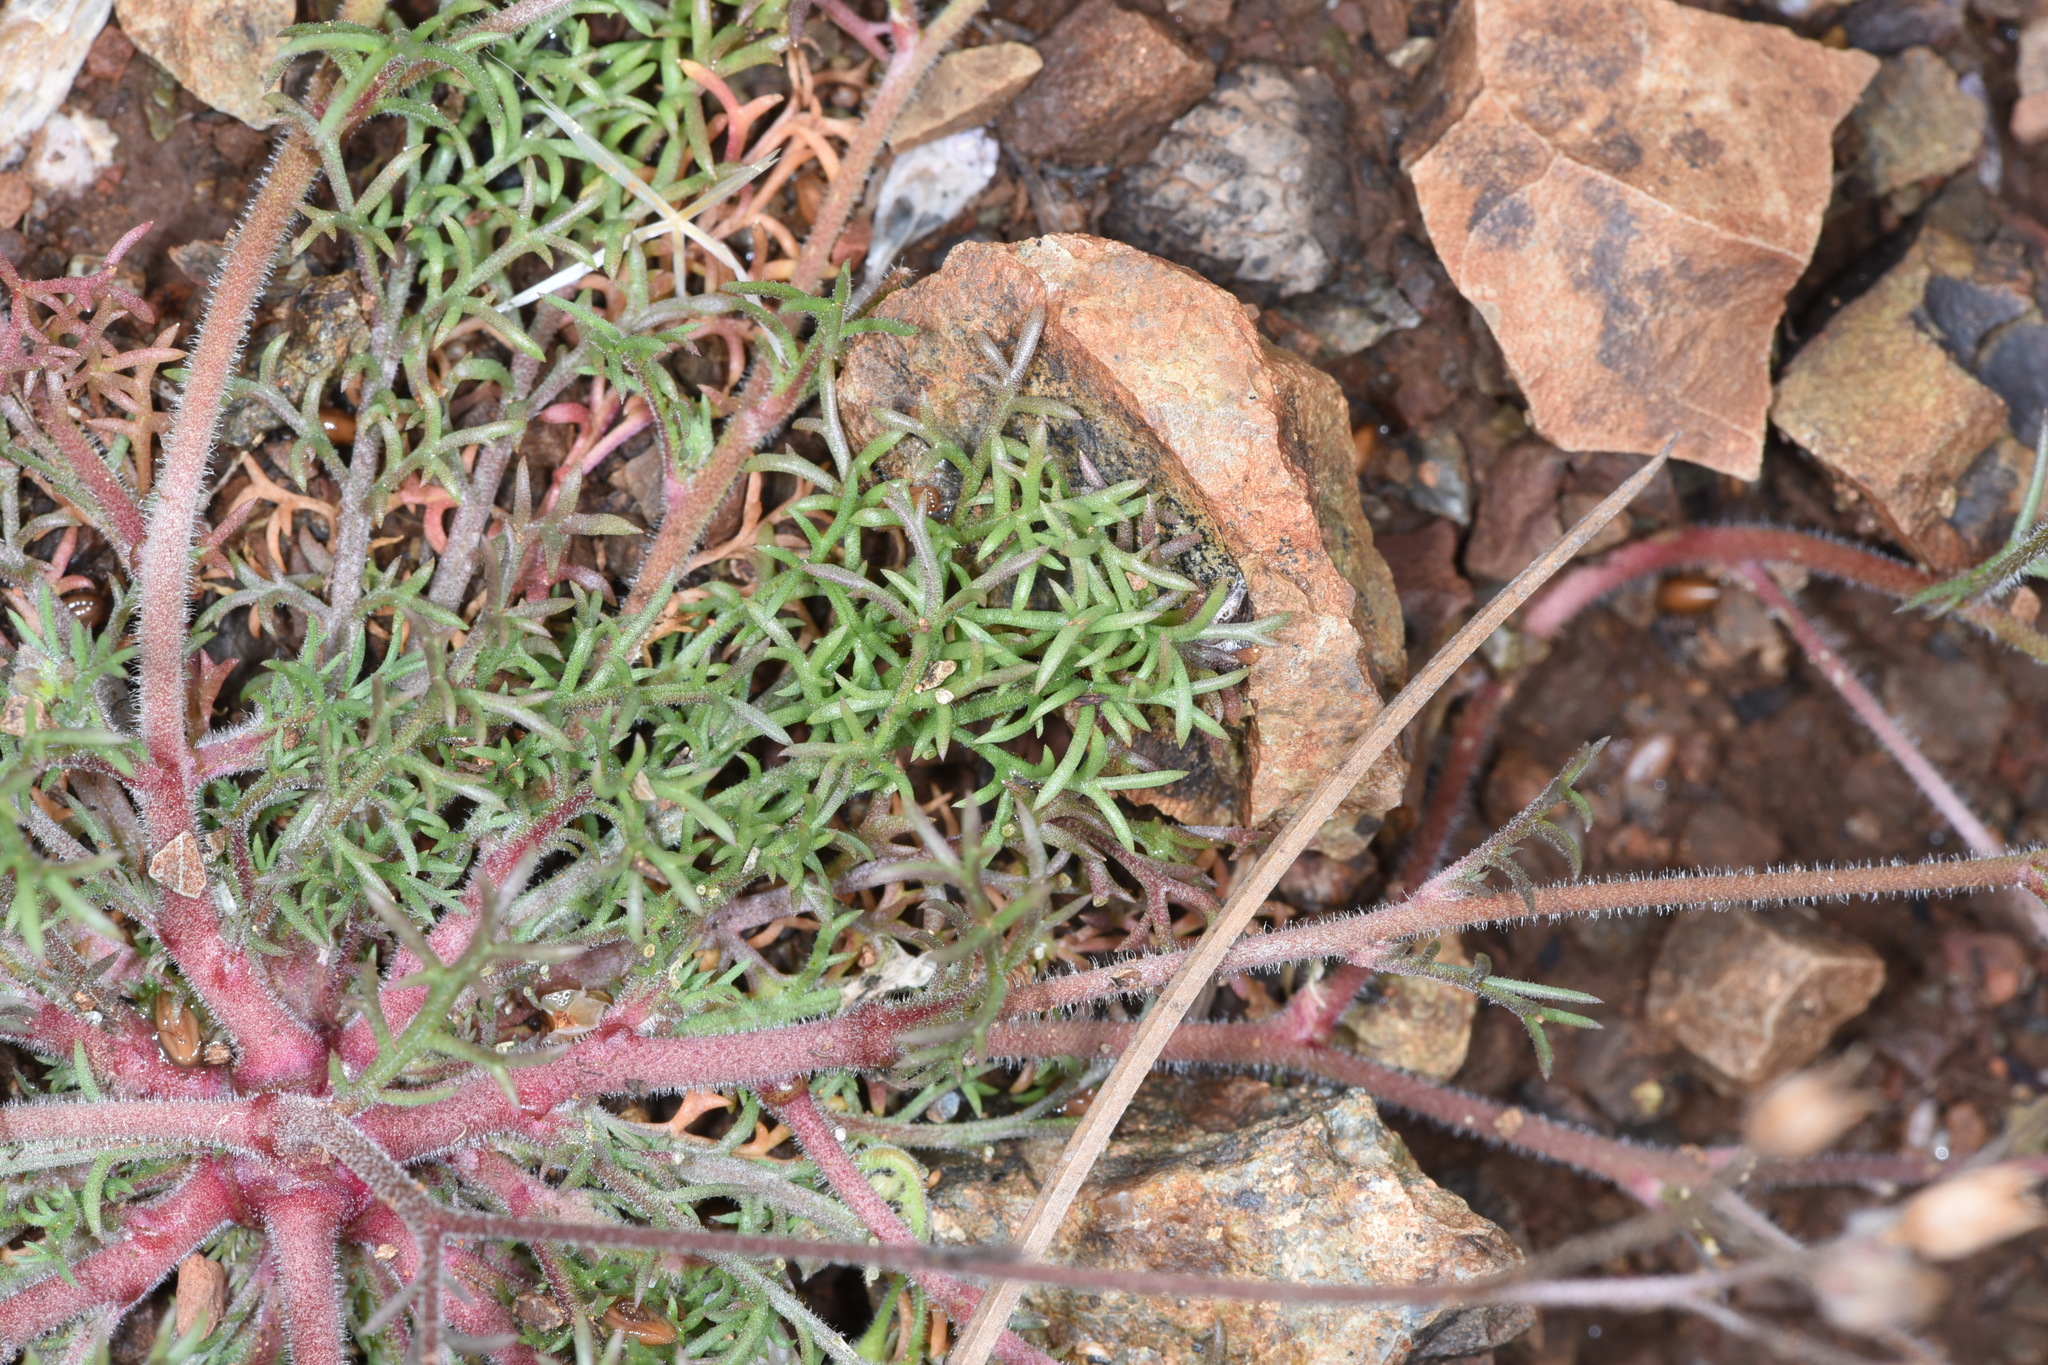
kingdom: Plantae
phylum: Tracheophyta
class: Magnoliopsida
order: Ericales
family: Polemoniaceae
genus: Gilia
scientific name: Gilia tricolor
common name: Bird's-eyes
